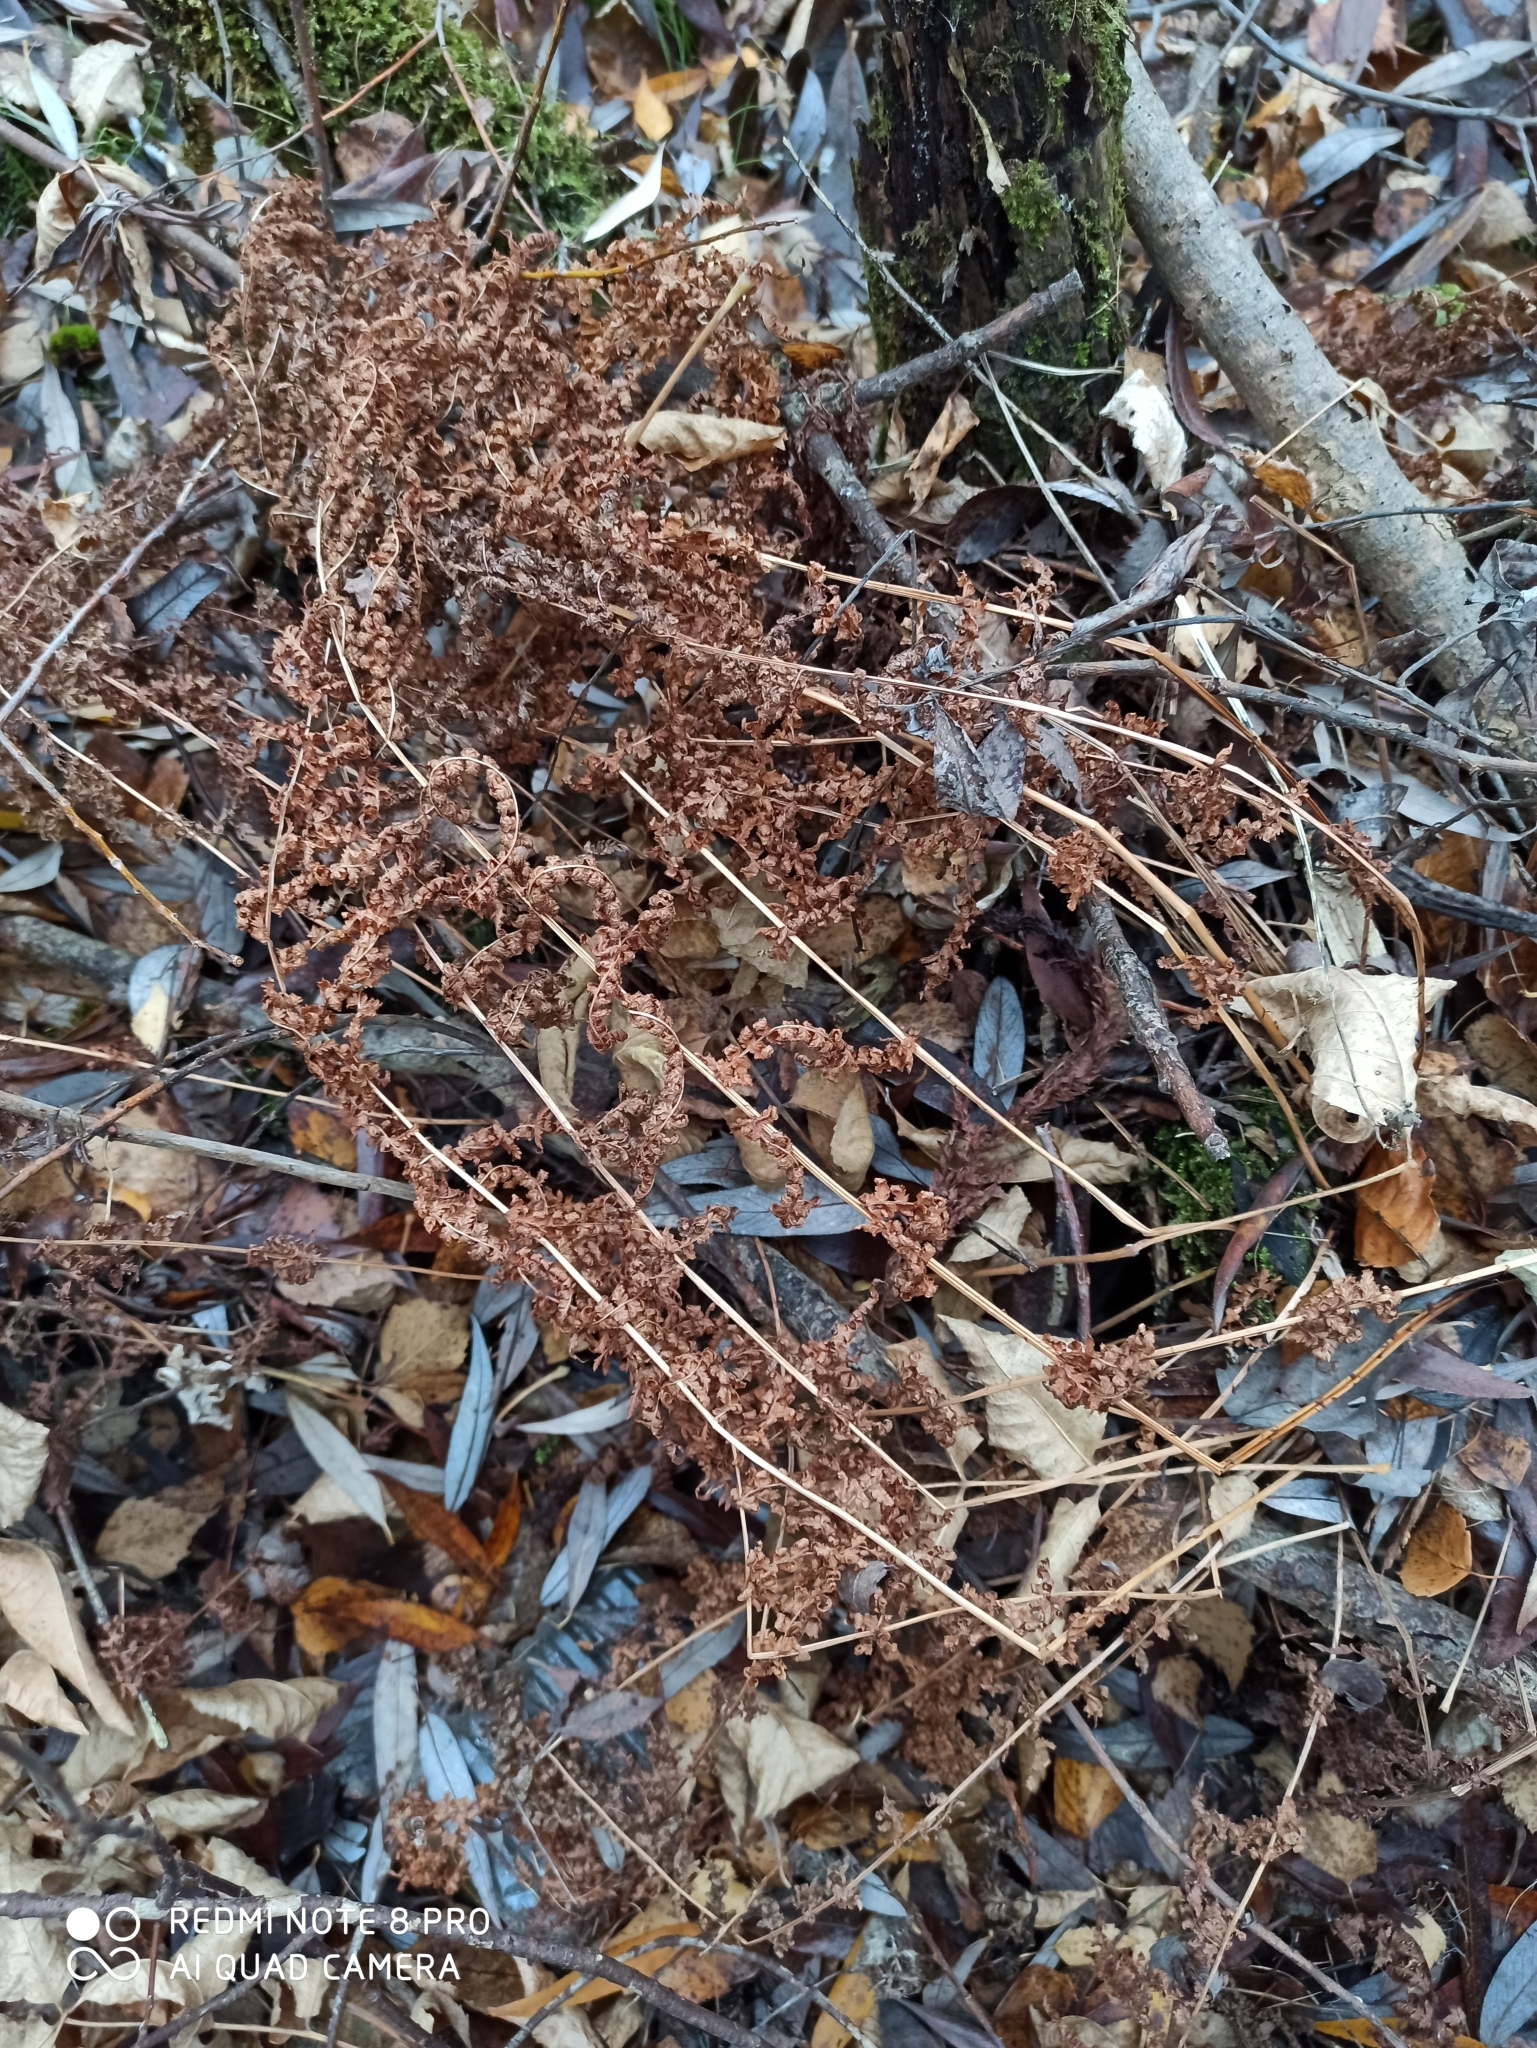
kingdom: Plantae
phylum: Tracheophyta
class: Polypodiopsida
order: Polypodiales
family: Athyriaceae
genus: Athyrium
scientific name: Athyrium filix-femina
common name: Lady fern
